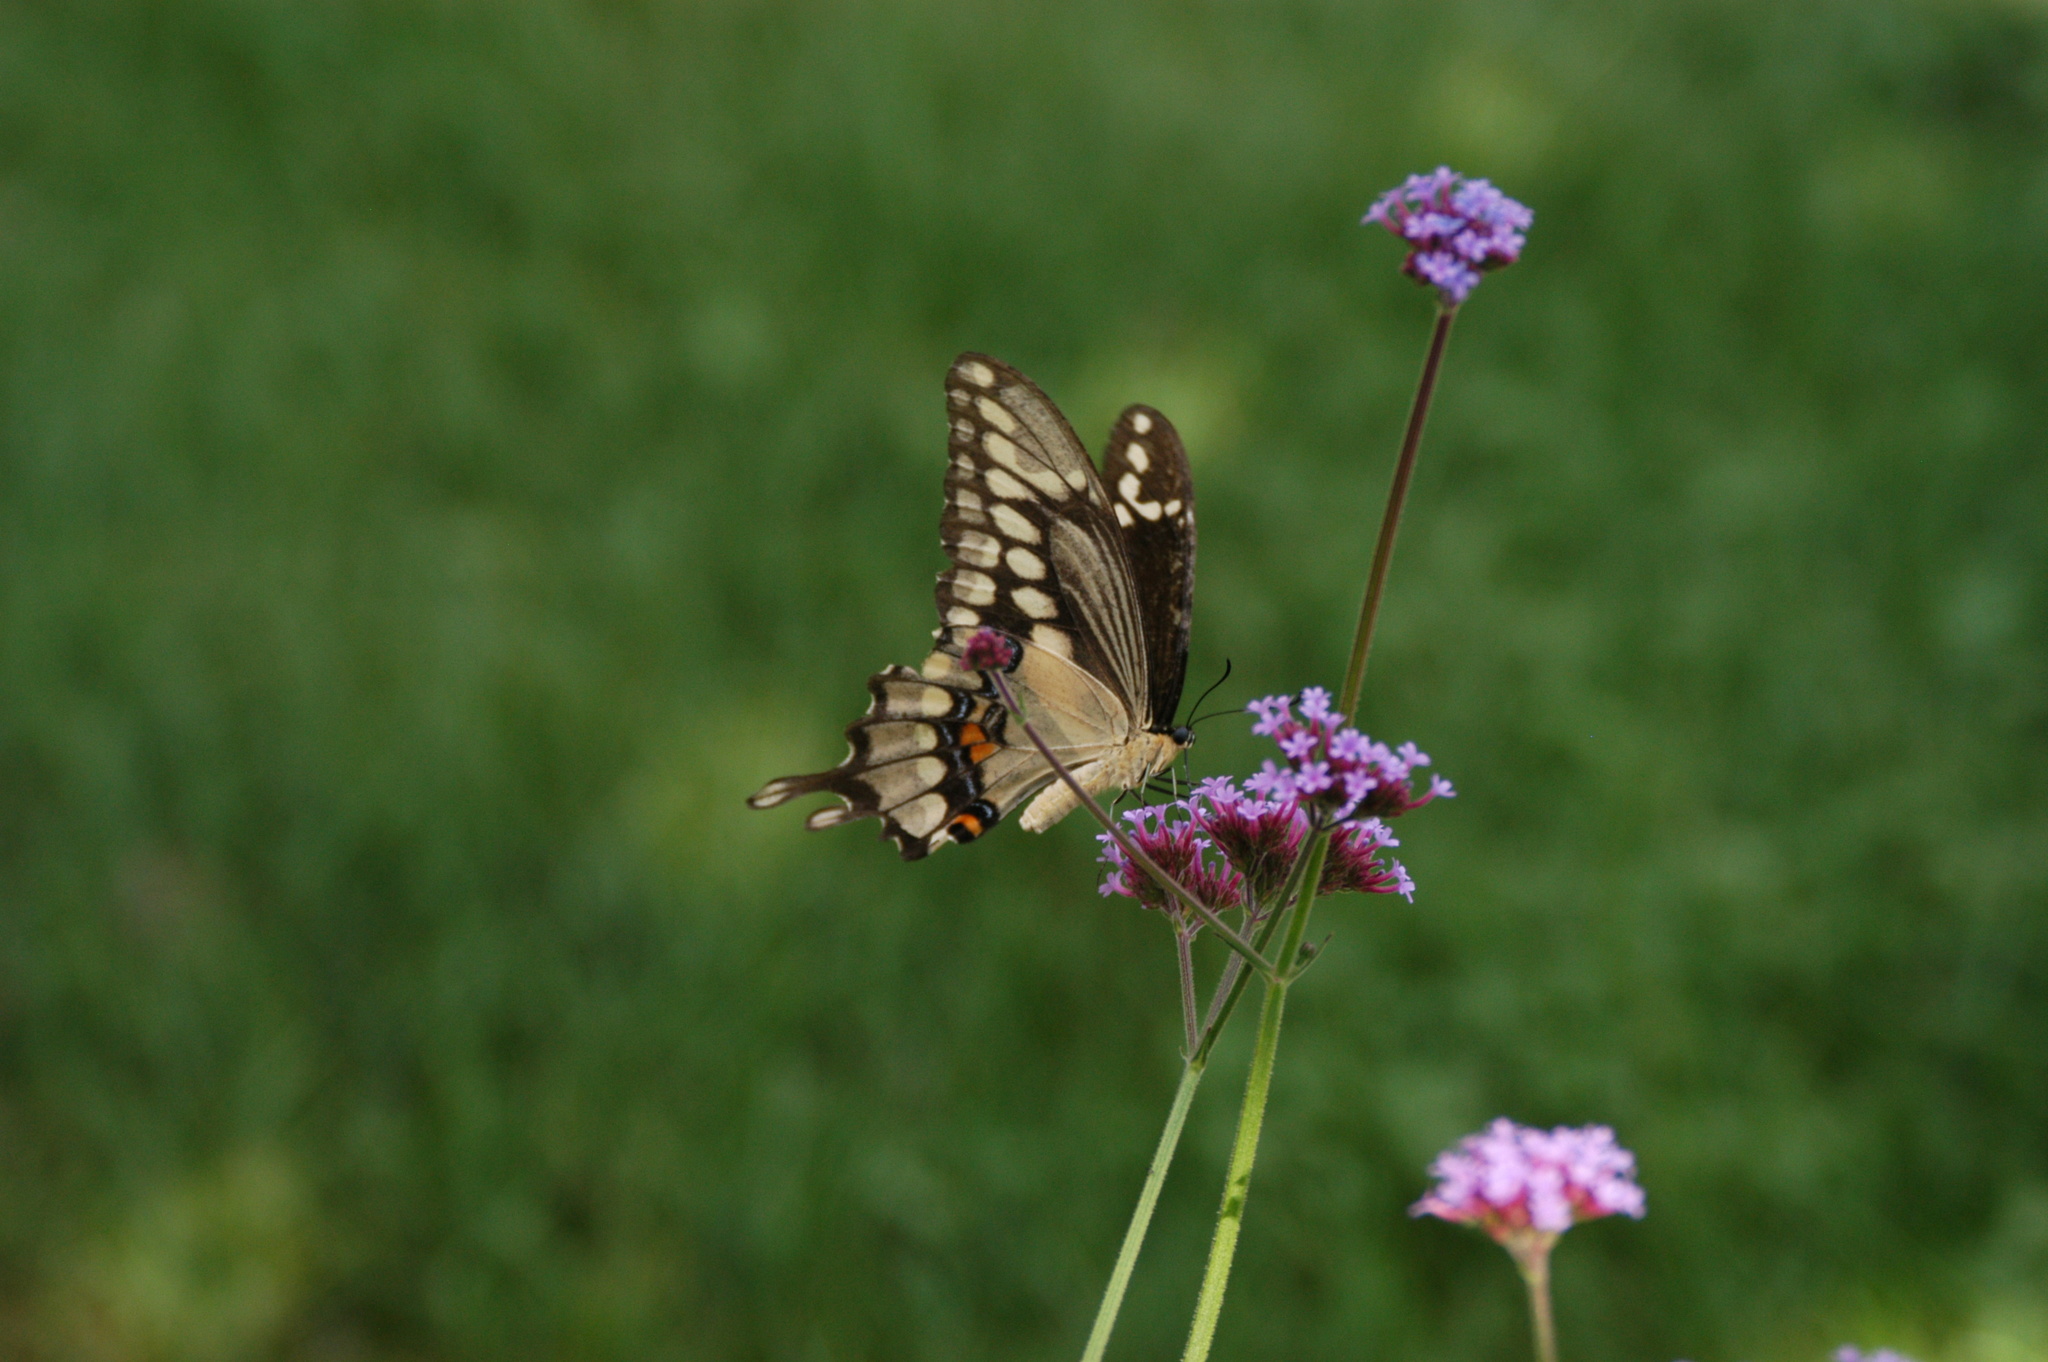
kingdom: Animalia
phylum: Arthropoda
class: Insecta
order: Lepidoptera
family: Papilionidae
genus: Papilio
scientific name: Papilio cresphontes
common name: Giant swallowtail
